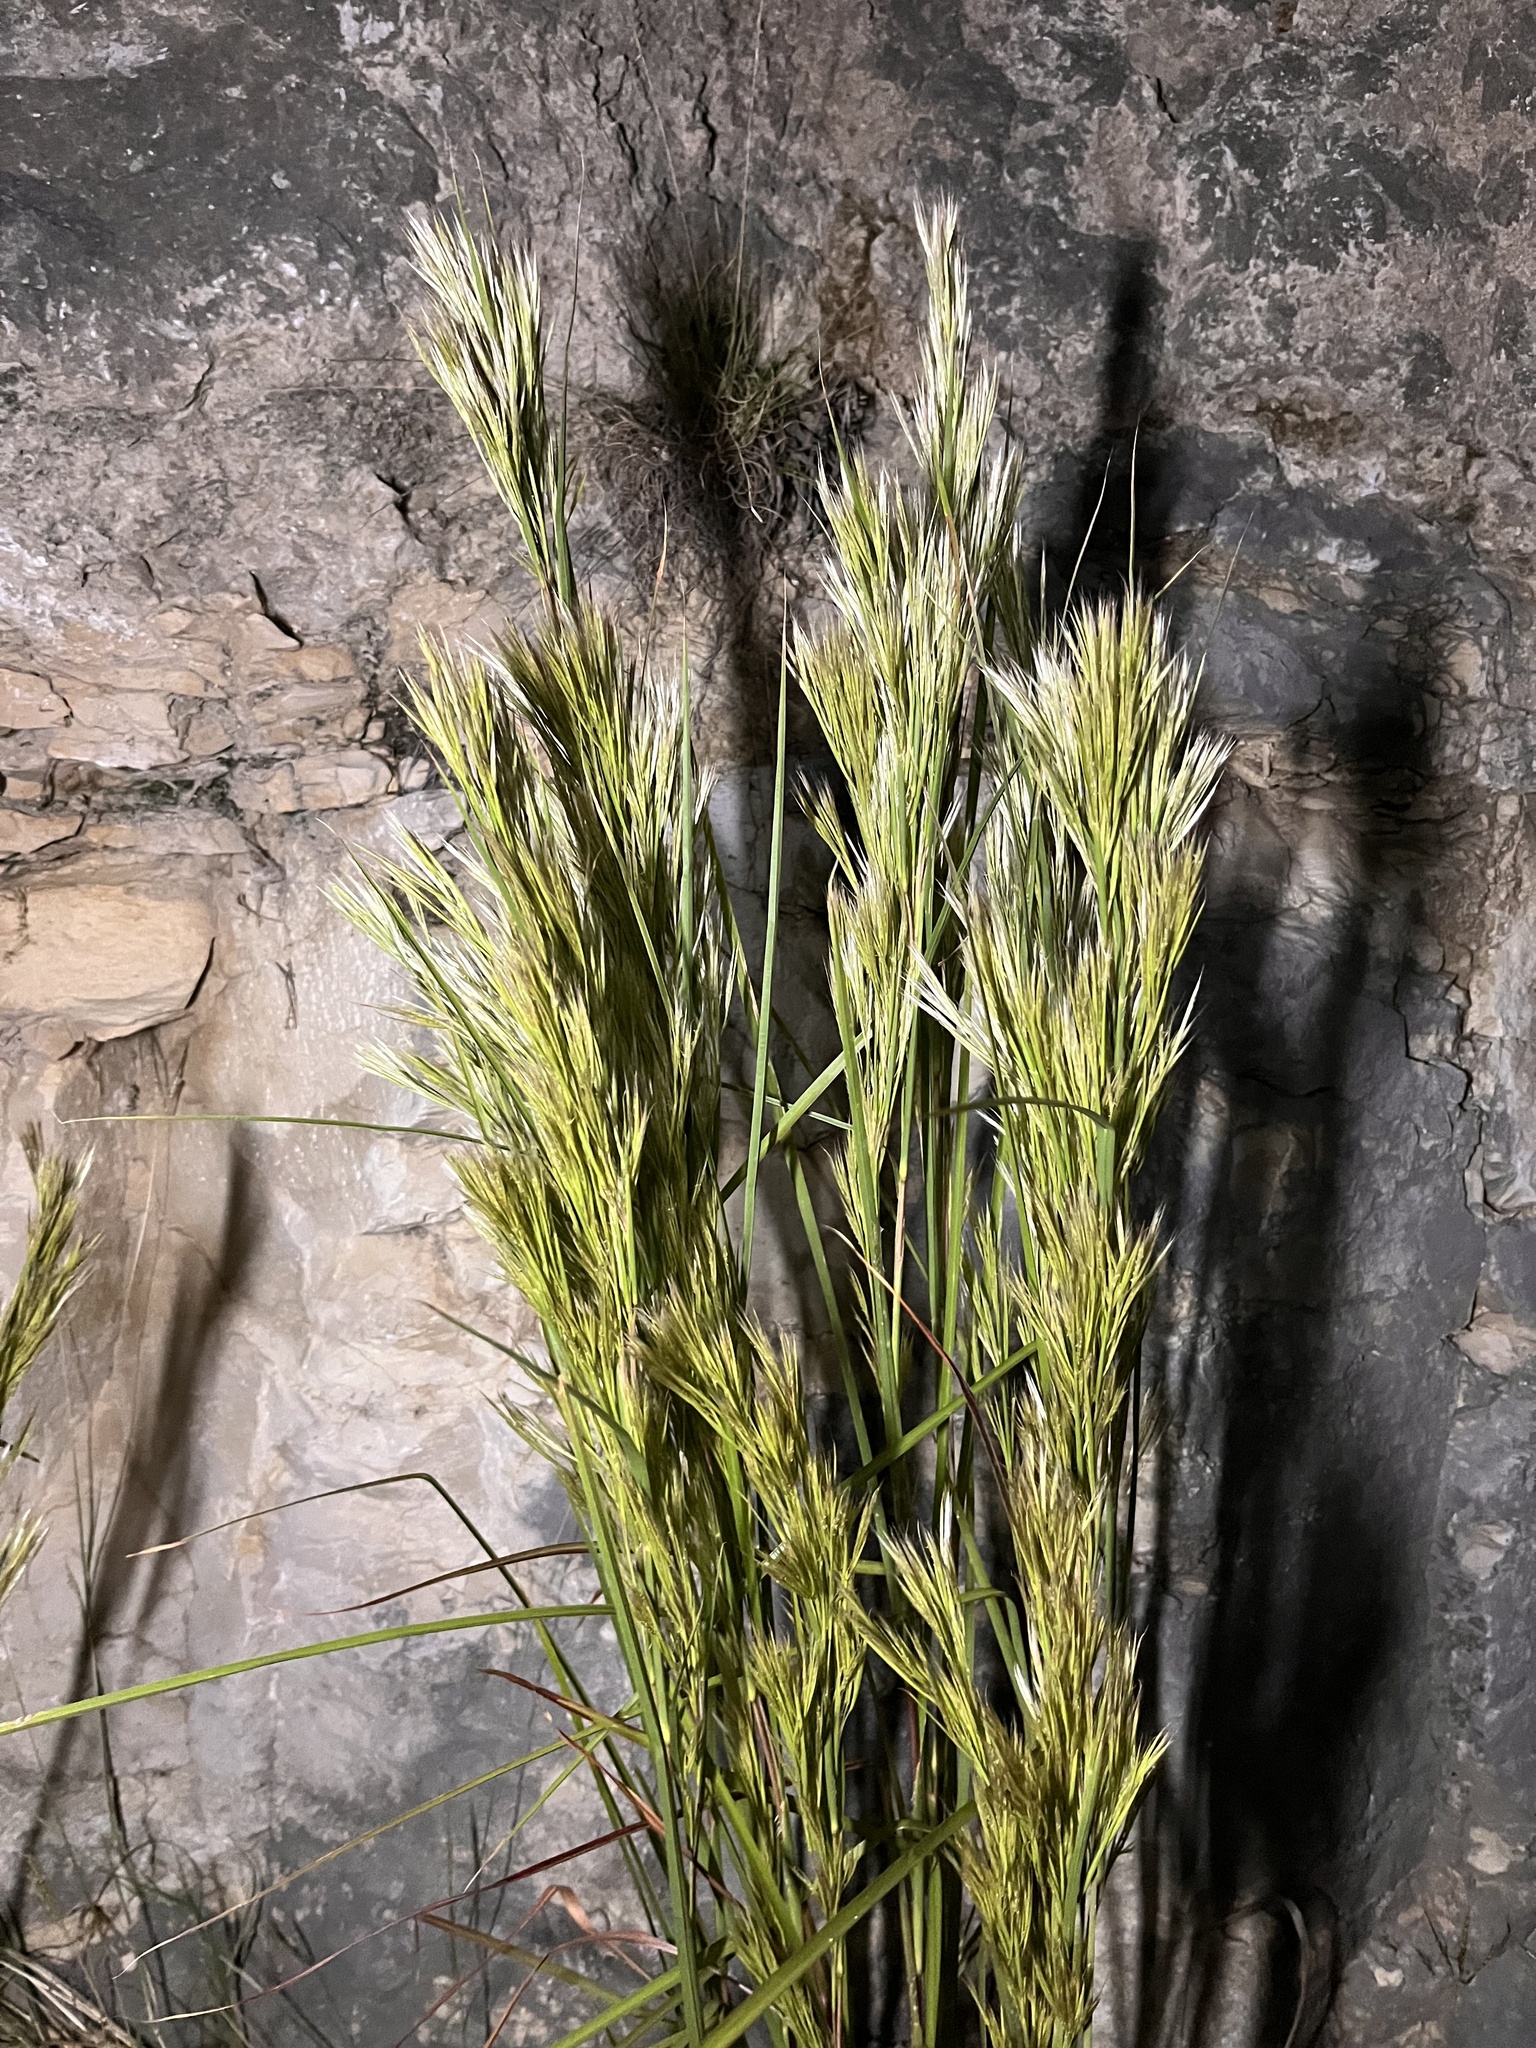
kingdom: Plantae
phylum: Tracheophyta
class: Liliopsida
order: Poales
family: Poaceae
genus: Andropogon
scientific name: Andropogon tenuispatheus
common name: Bushy bluestem
